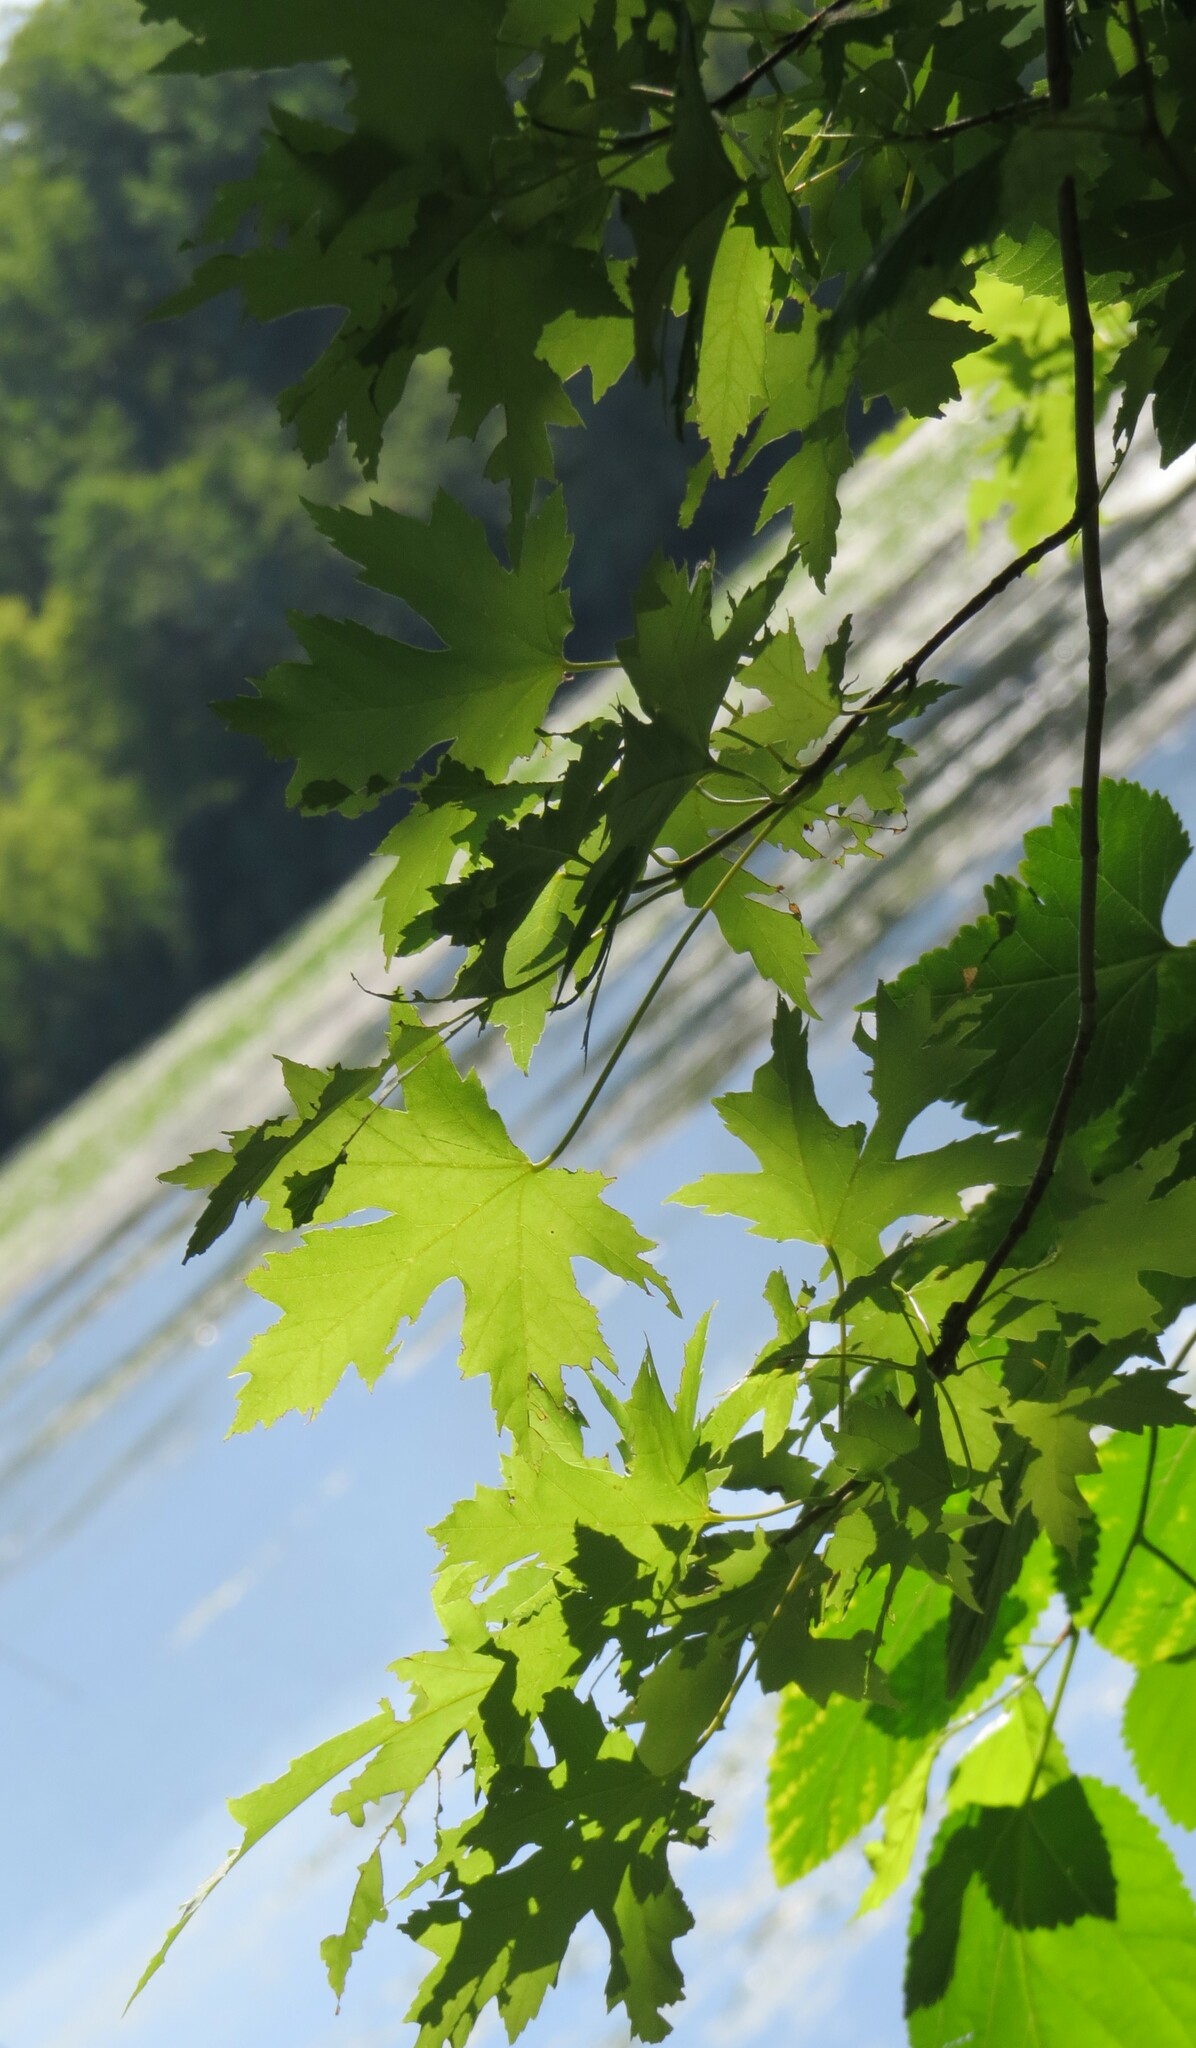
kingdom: Plantae
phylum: Tracheophyta
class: Magnoliopsida
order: Sapindales
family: Sapindaceae
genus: Acer
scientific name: Acer saccharinum
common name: Silver maple
